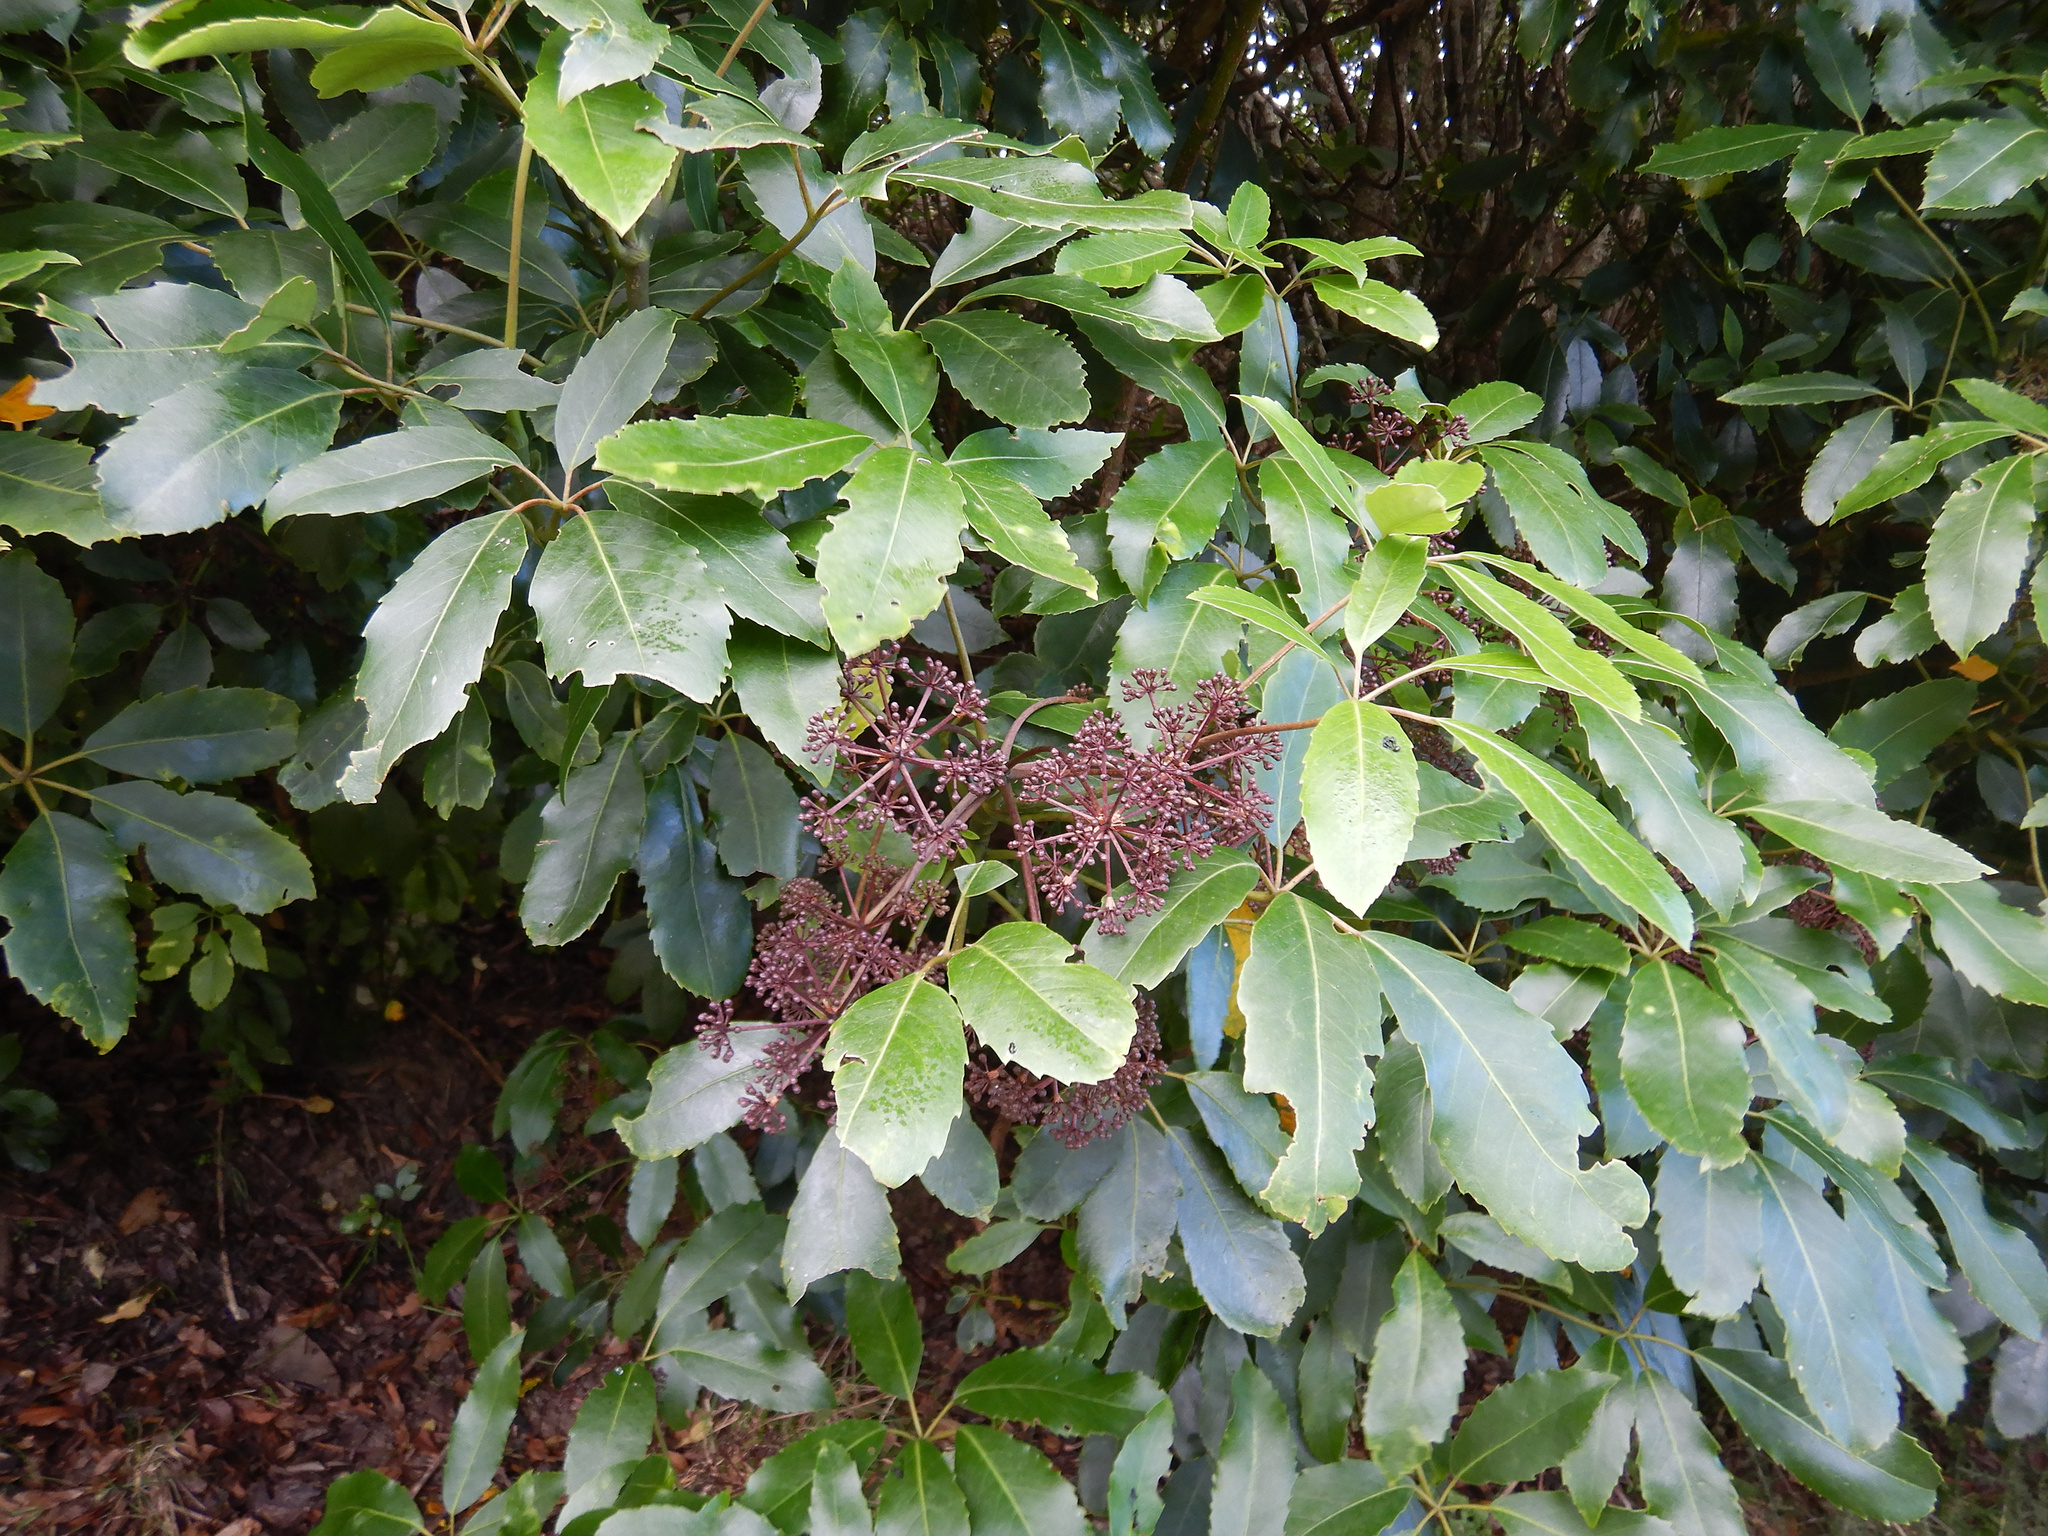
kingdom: Plantae
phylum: Tracheophyta
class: Magnoliopsida
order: Apiales
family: Araliaceae
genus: Neopanax
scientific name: Neopanax arboreus
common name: Five-fingers
